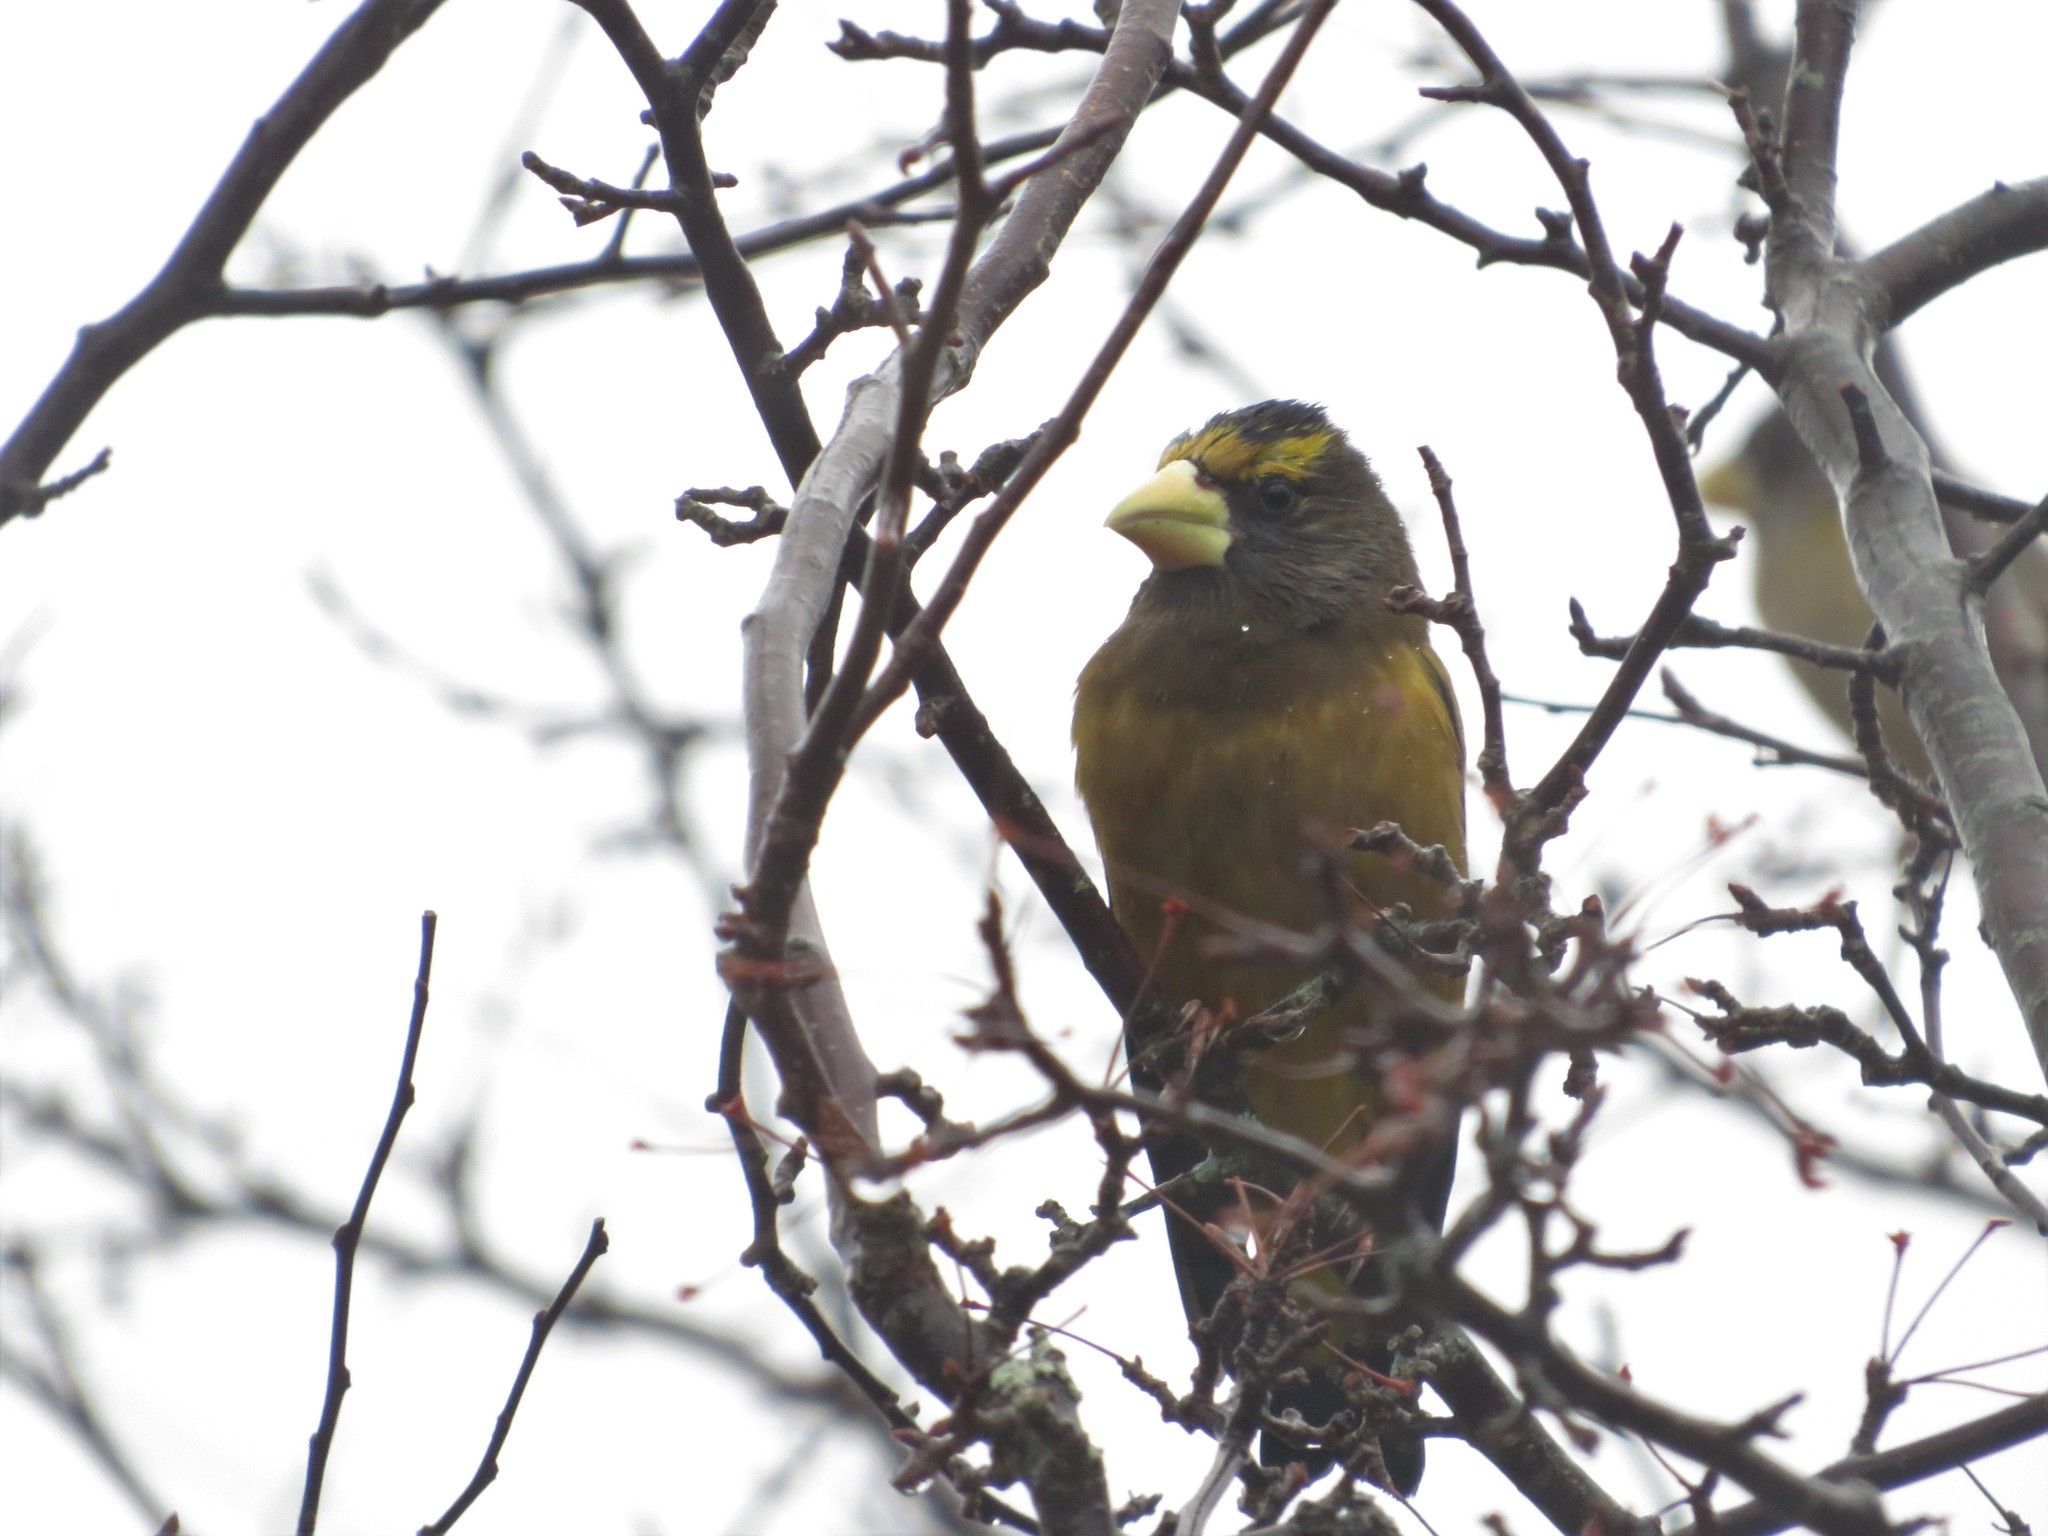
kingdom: Animalia
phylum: Chordata
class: Aves
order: Passeriformes
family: Fringillidae
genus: Hesperiphona
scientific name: Hesperiphona vespertina
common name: Evening grosbeak
